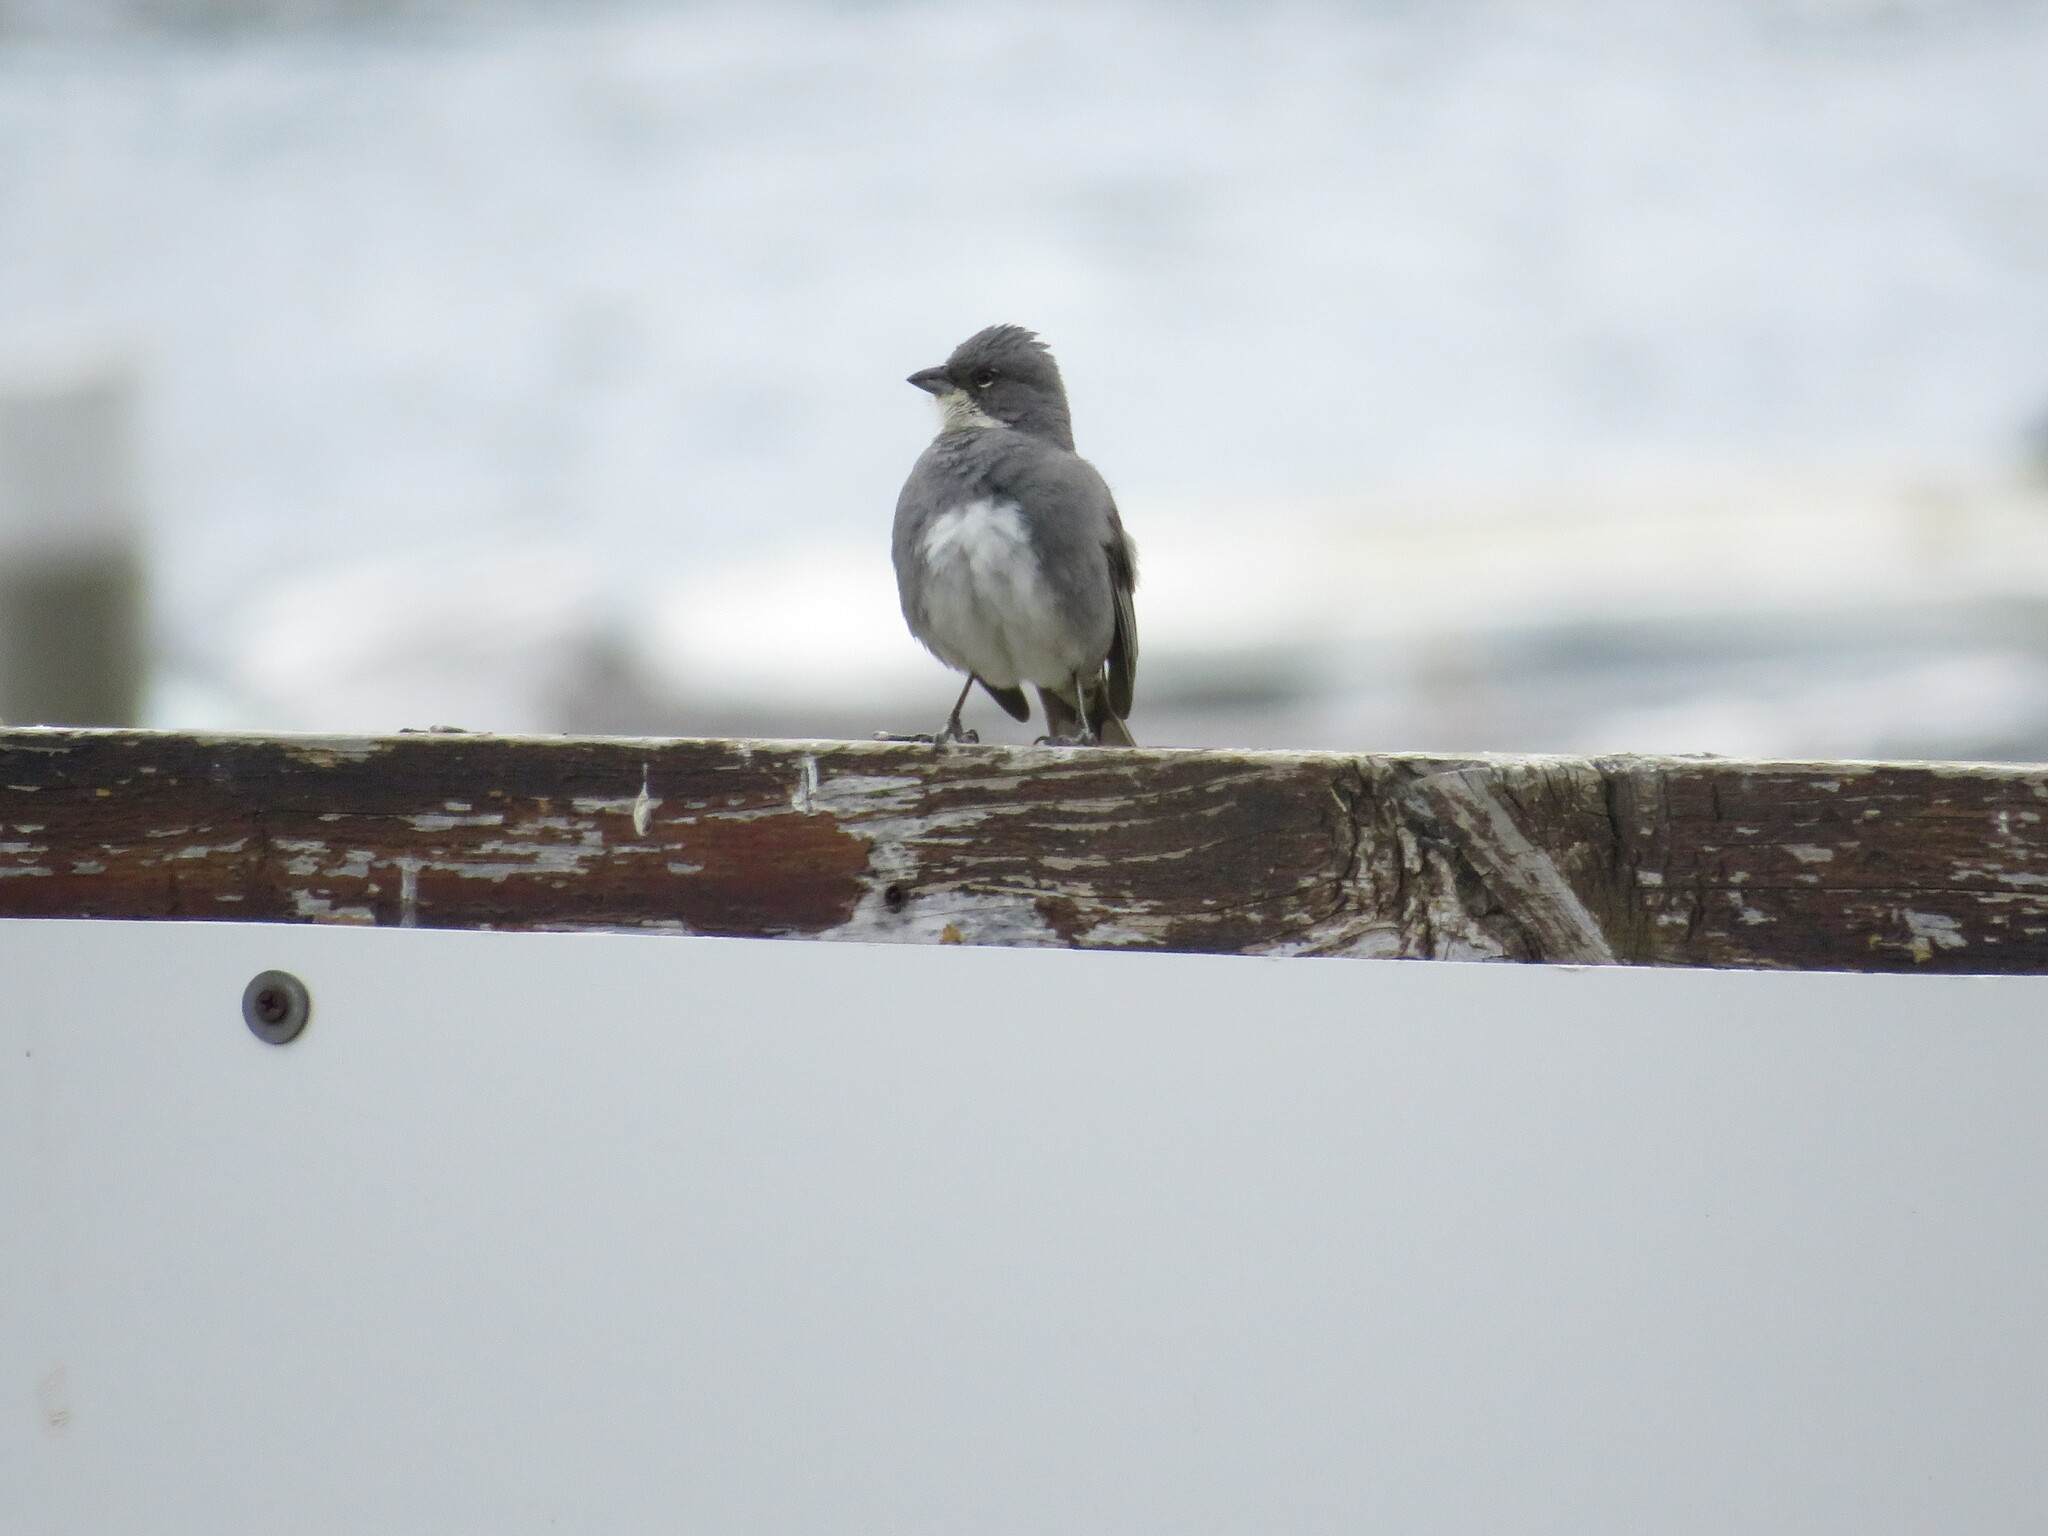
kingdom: Animalia
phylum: Chordata
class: Aves
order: Passeriformes
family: Thraupidae
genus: Diuca
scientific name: Diuca diuca
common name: Common diuca finch
